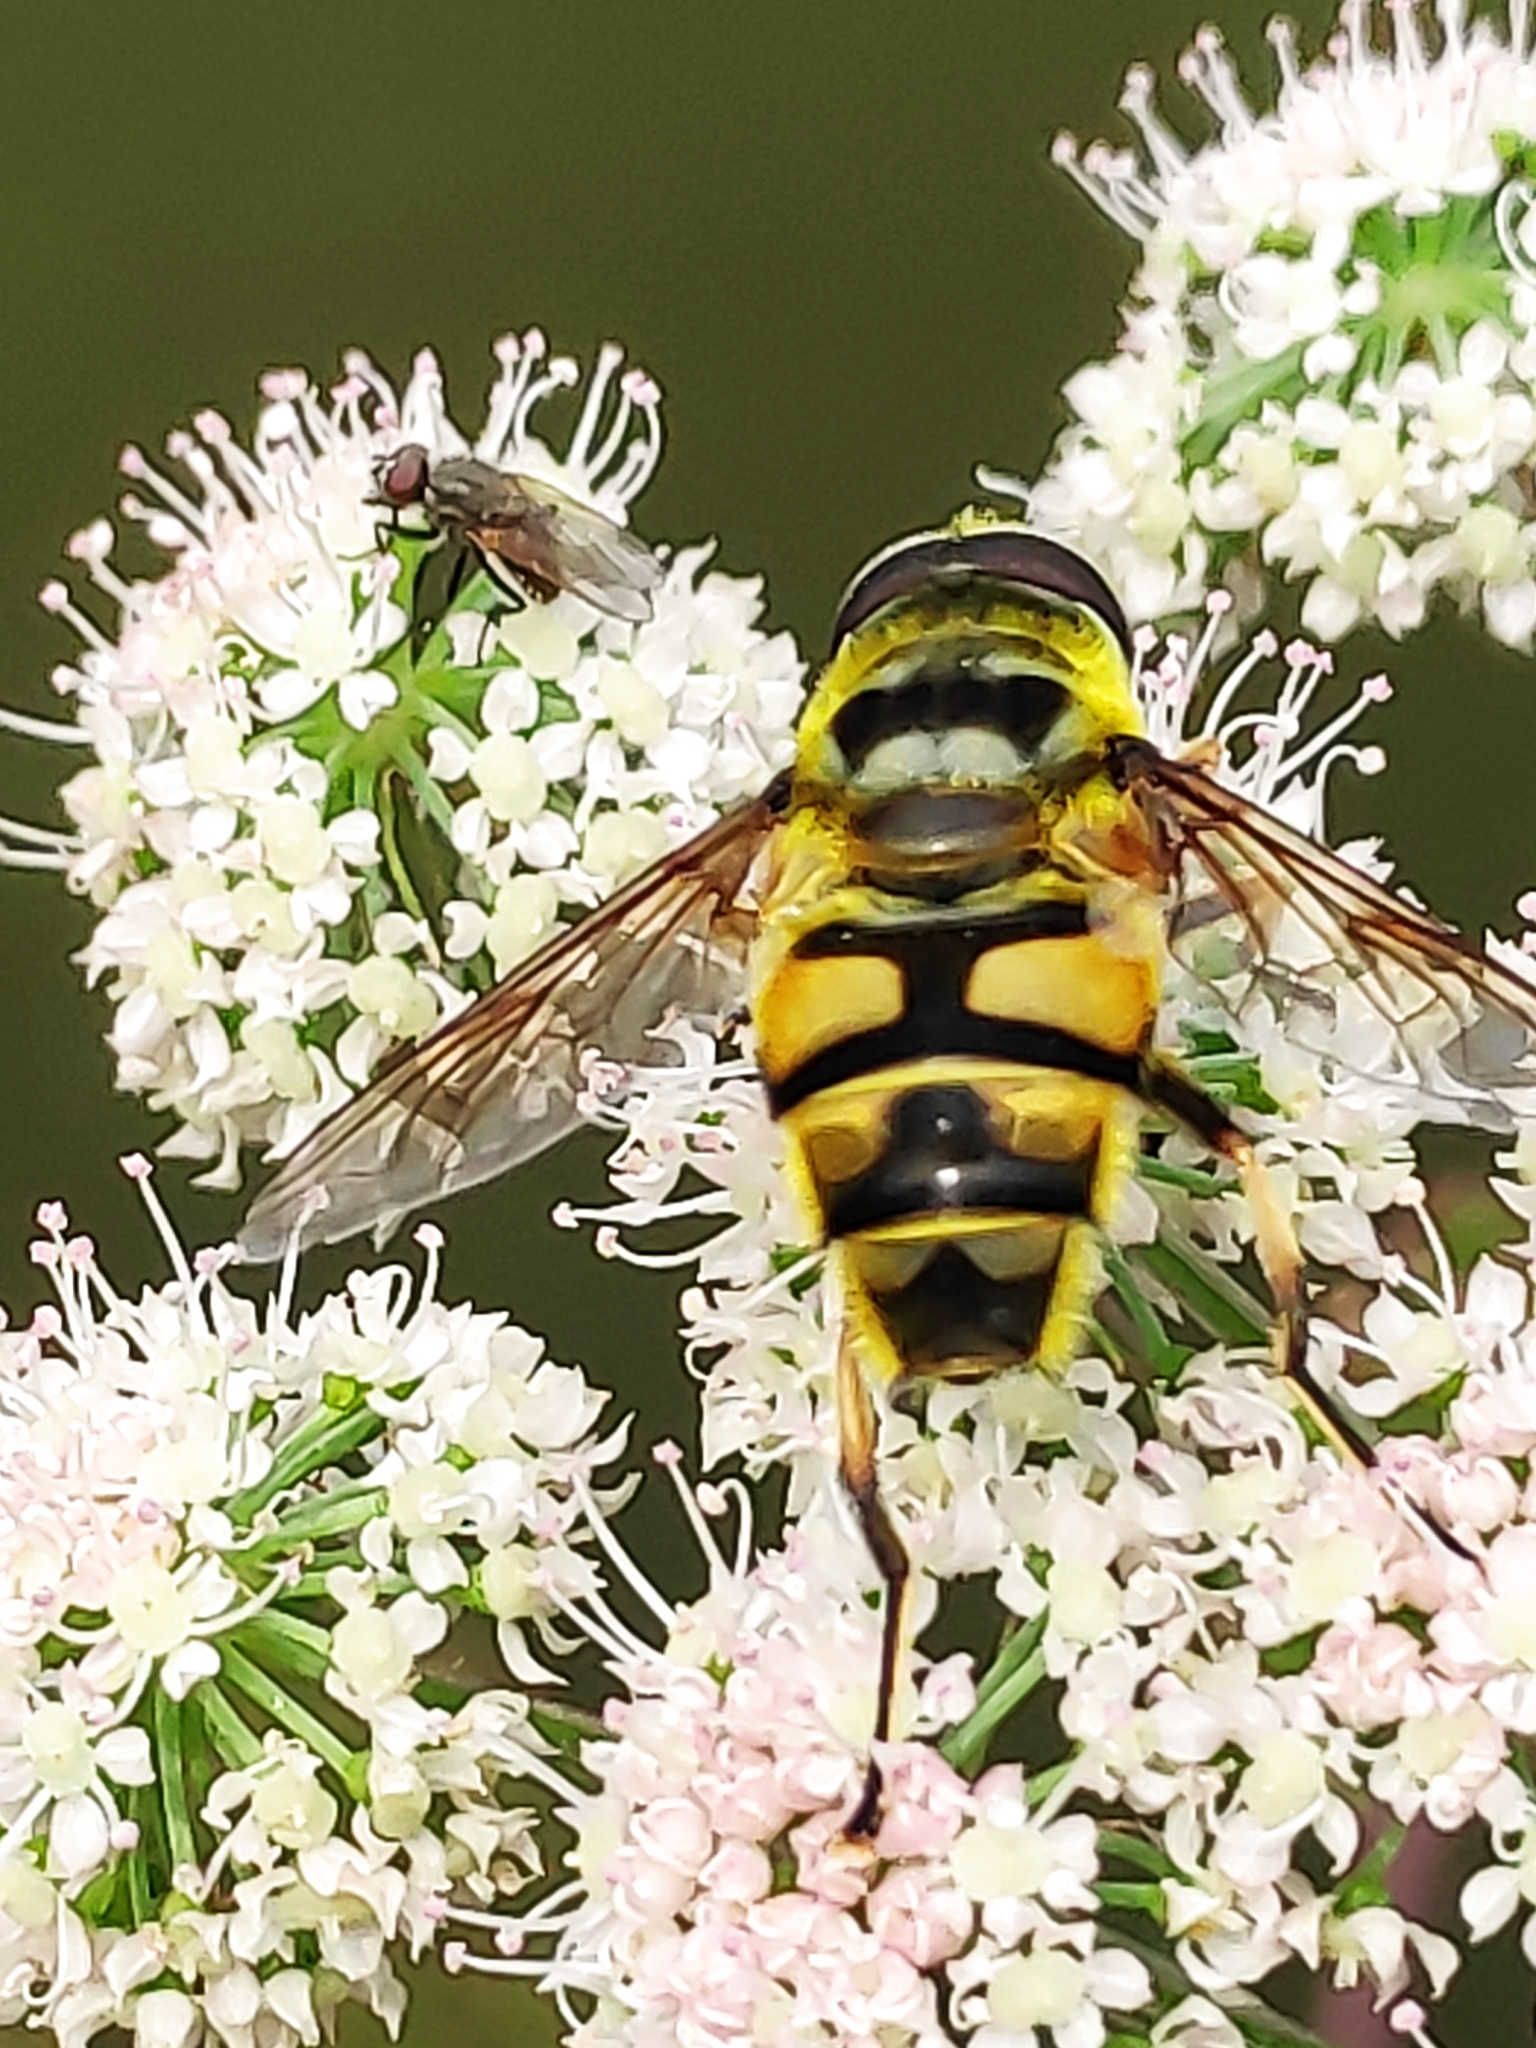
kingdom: Animalia
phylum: Arthropoda
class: Insecta
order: Diptera
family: Syrphidae
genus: Myathropa
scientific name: Myathropa florea
